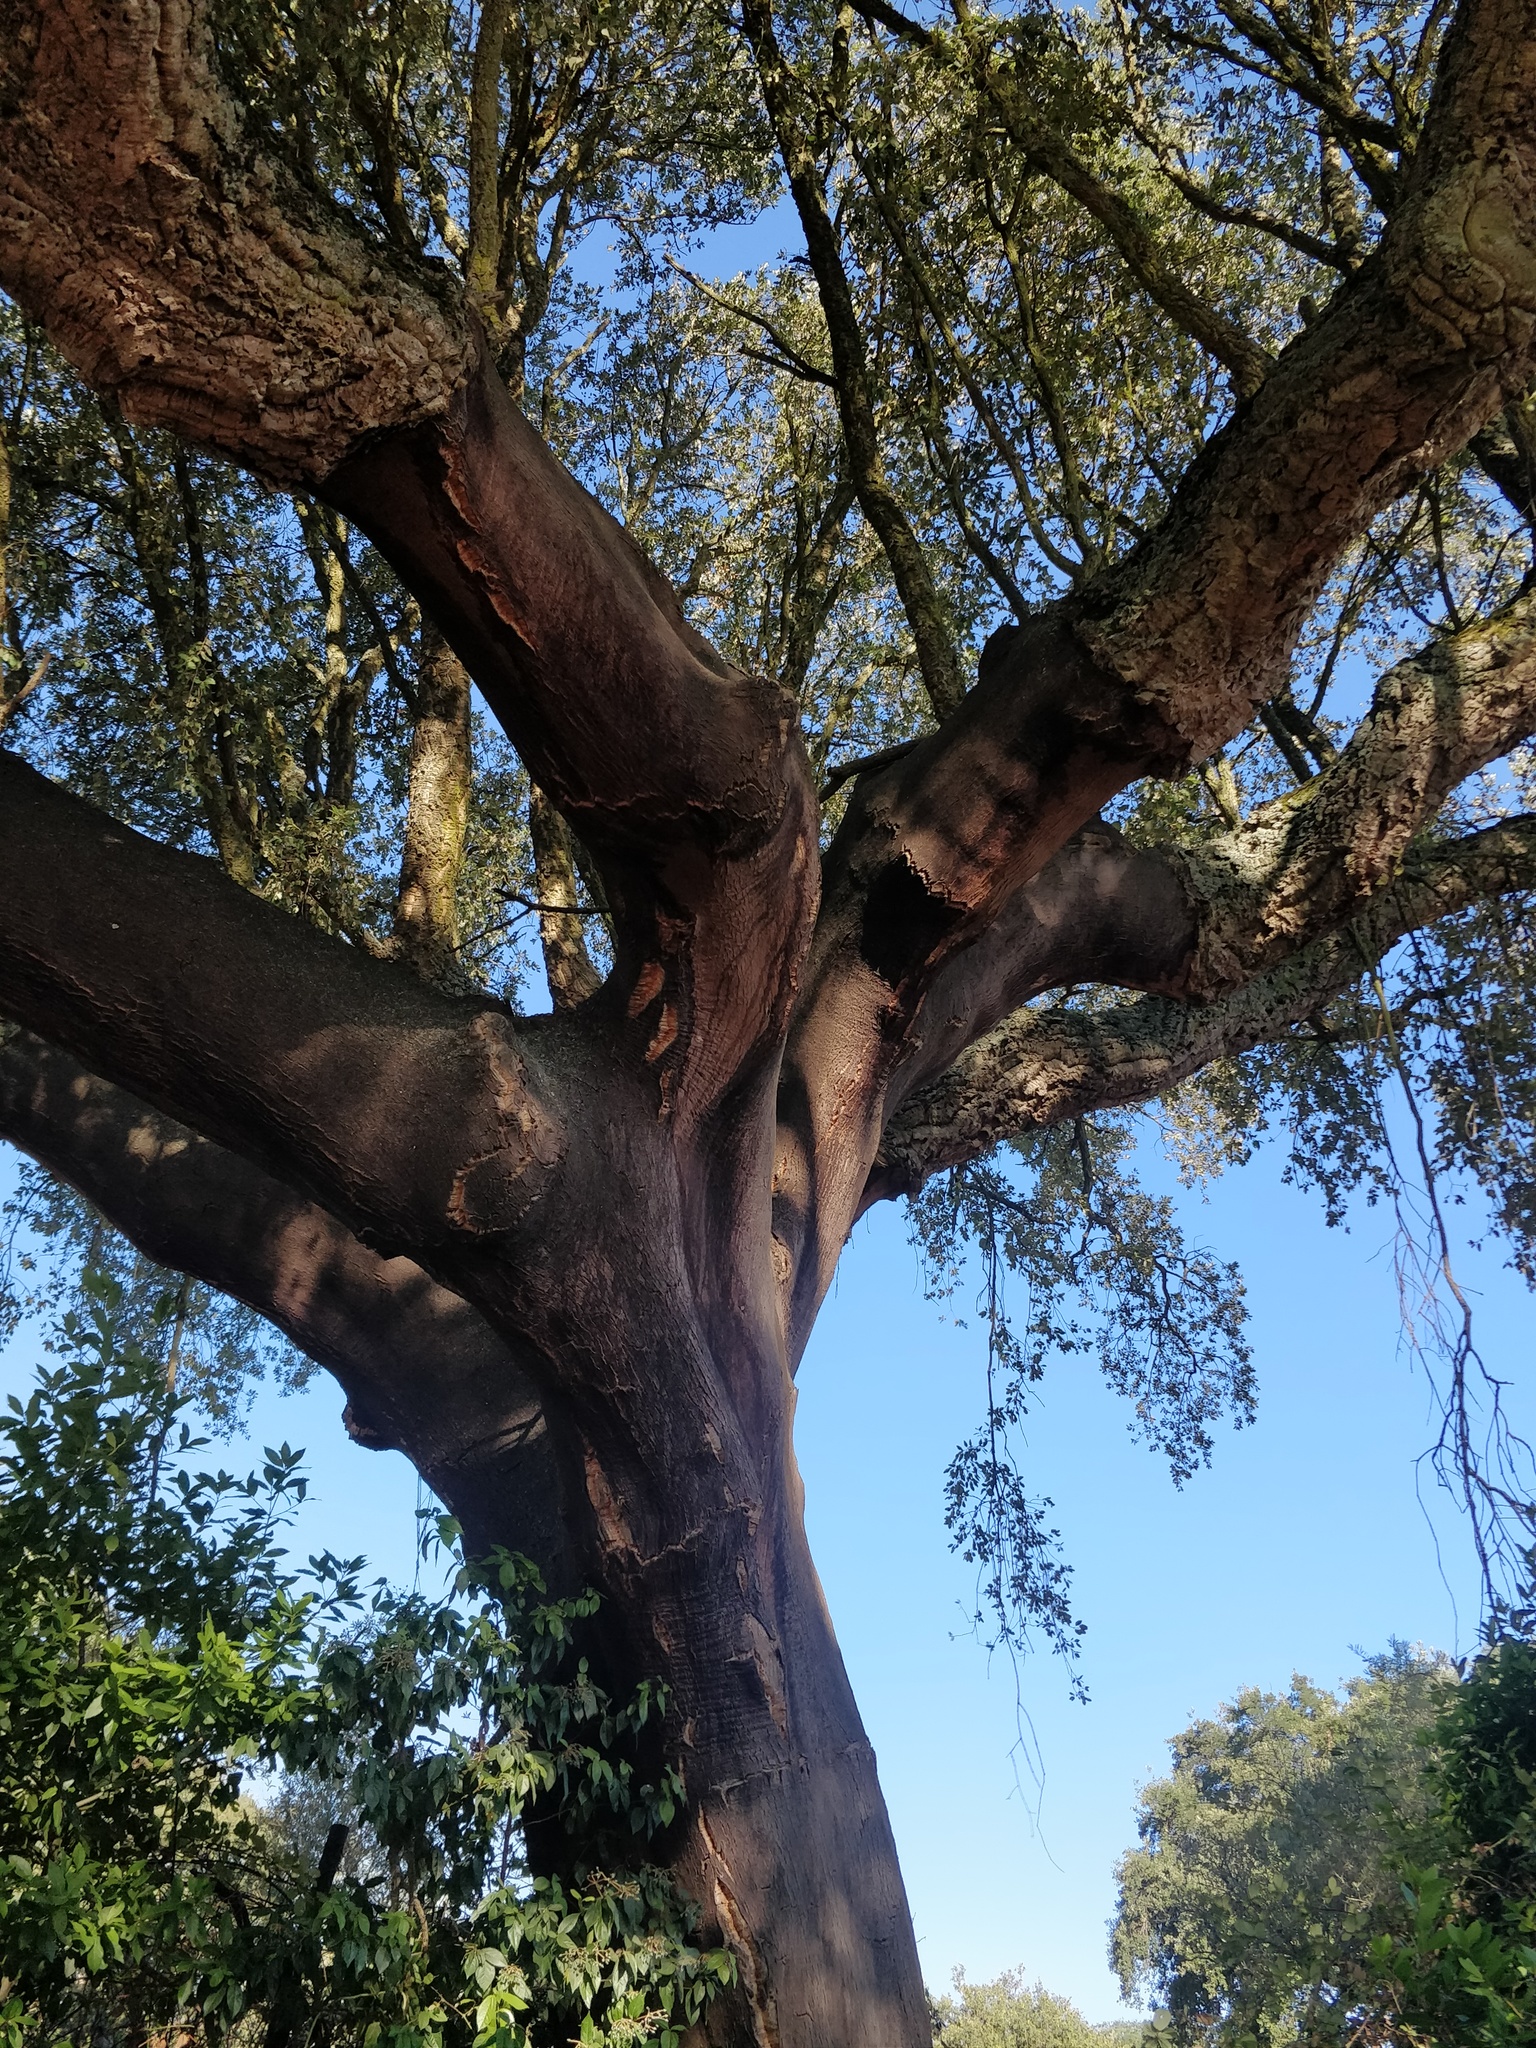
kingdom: Plantae
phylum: Tracheophyta
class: Magnoliopsida
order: Fagales
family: Fagaceae
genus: Quercus
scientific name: Quercus suber
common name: Cork oak
